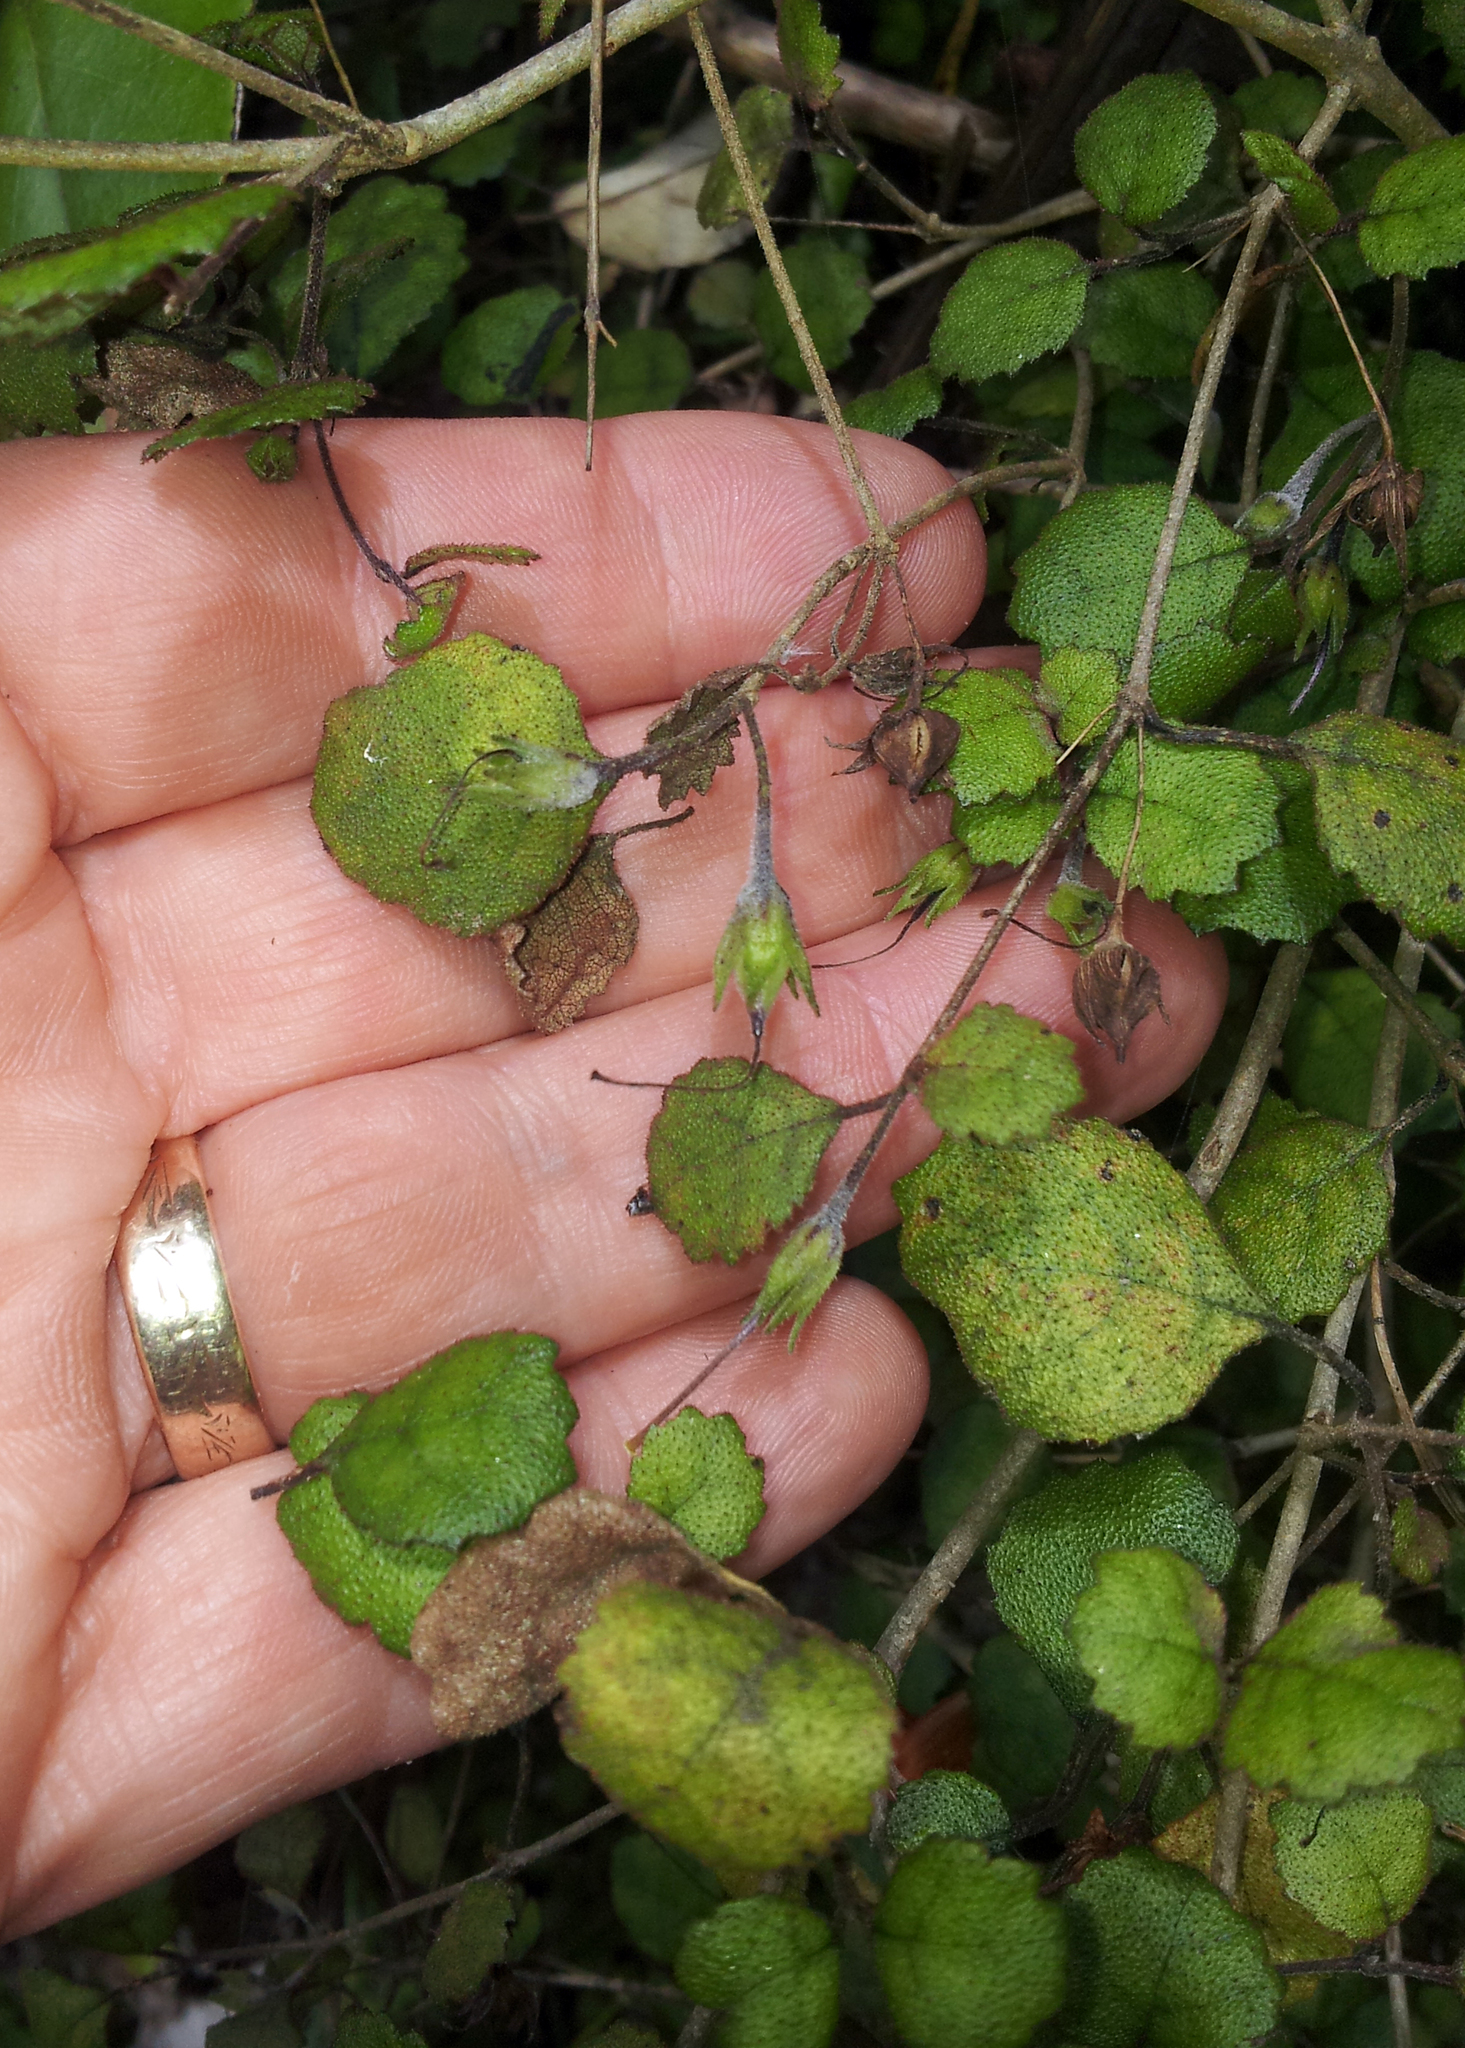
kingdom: Plantae
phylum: Tracheophyta
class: Magnoliopsida
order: Lamiales
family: Gesneriaceae
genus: Rhabdothamnus
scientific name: Rhabdothamnus solandri
